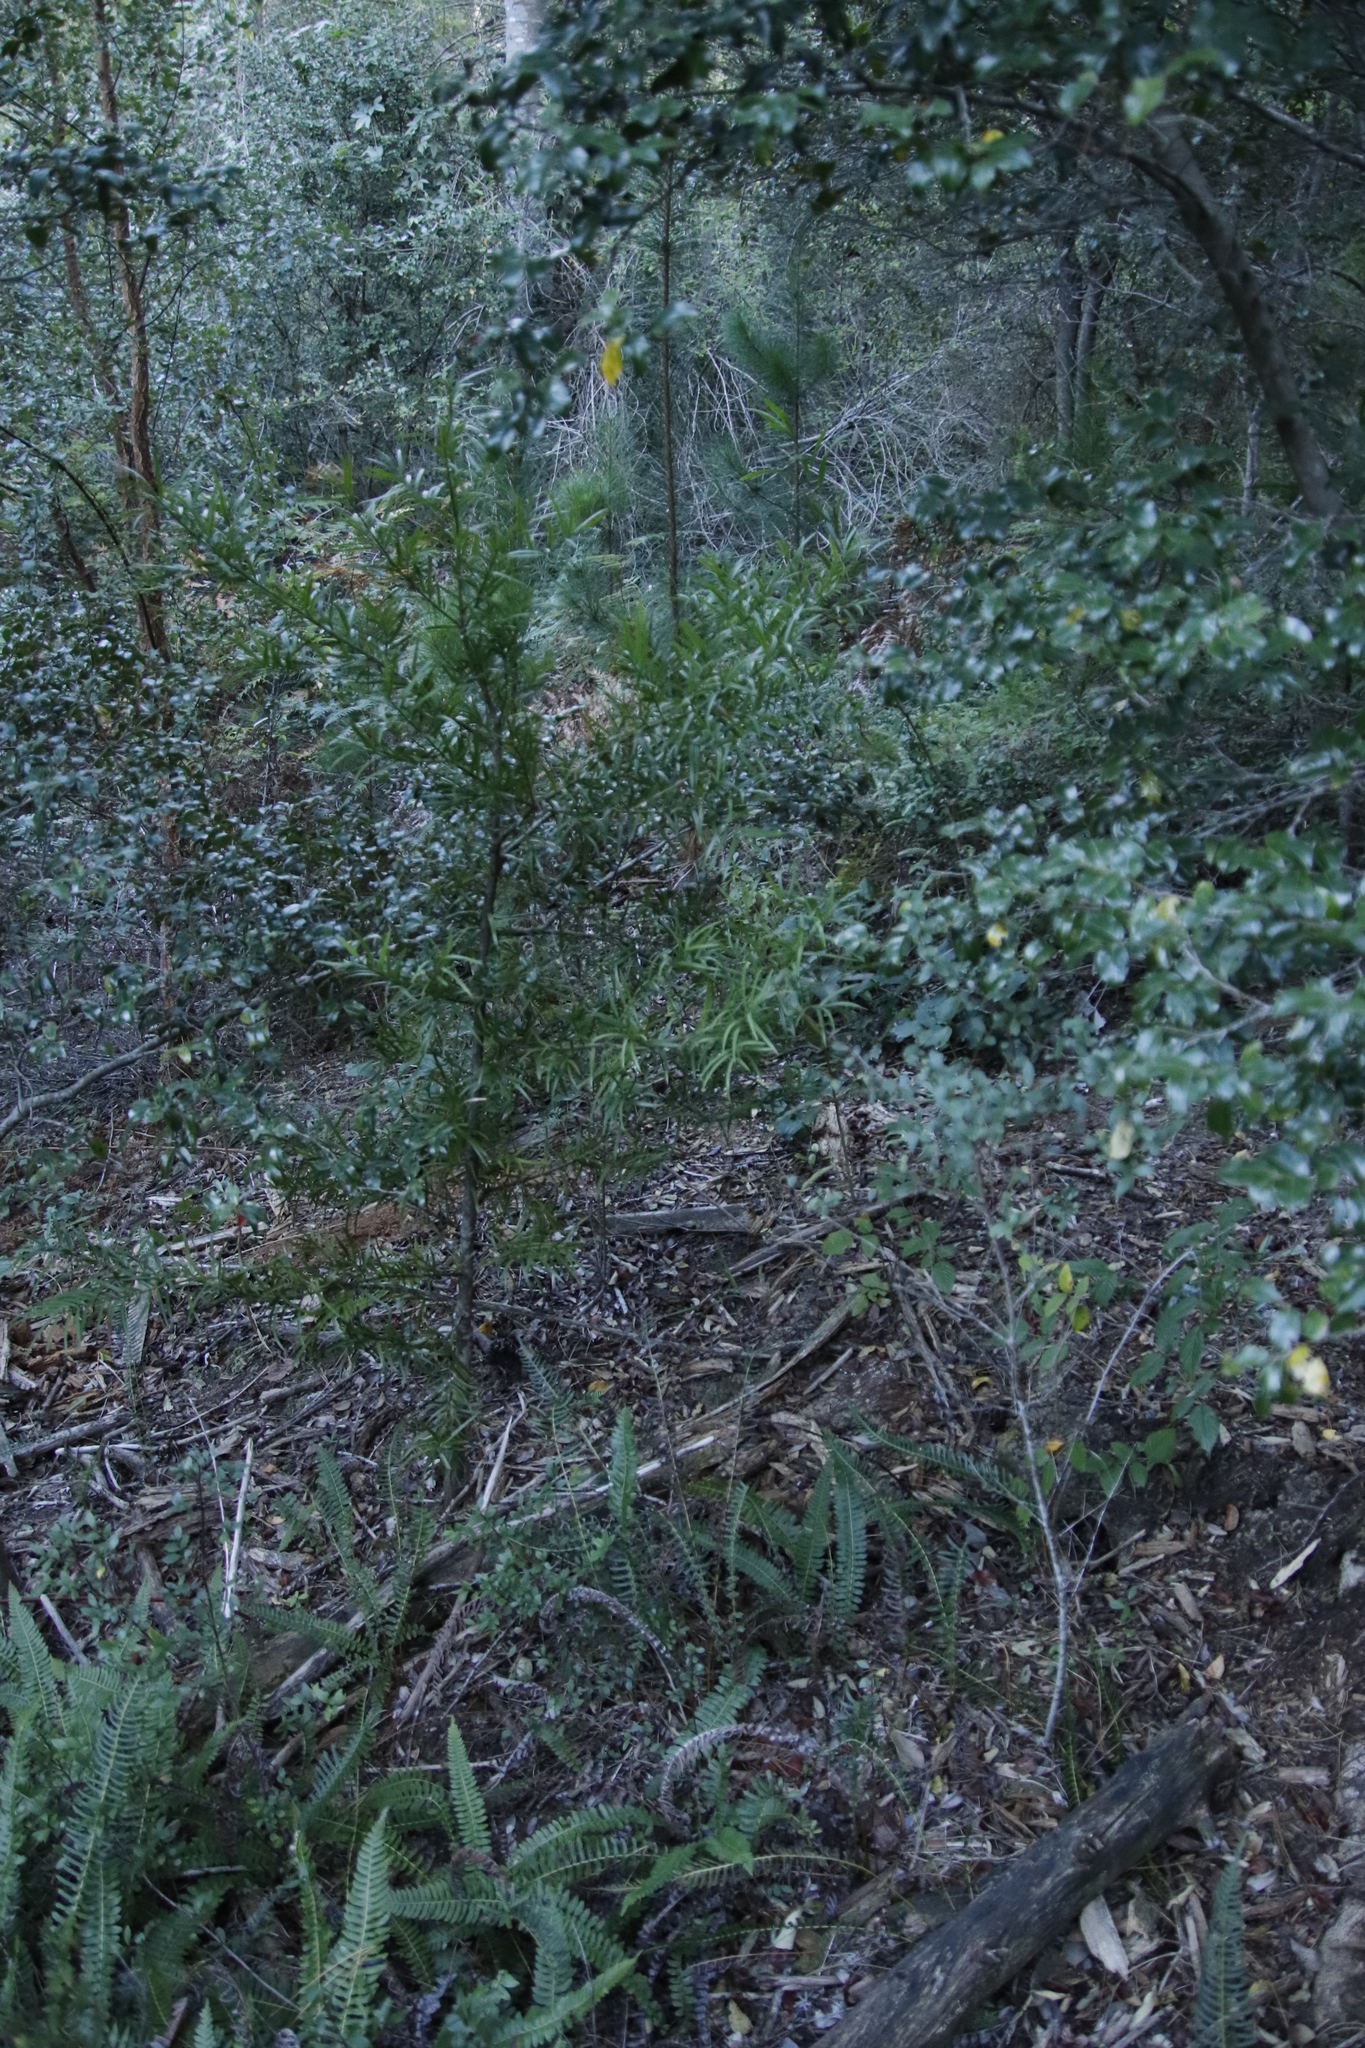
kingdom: Plantae
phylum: Tracheophyta
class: Pinopsida
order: Pinales
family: Podocarpaceae
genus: Afrocarpus
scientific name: Afrocarpus falcatus
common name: Bastard yellowwood
